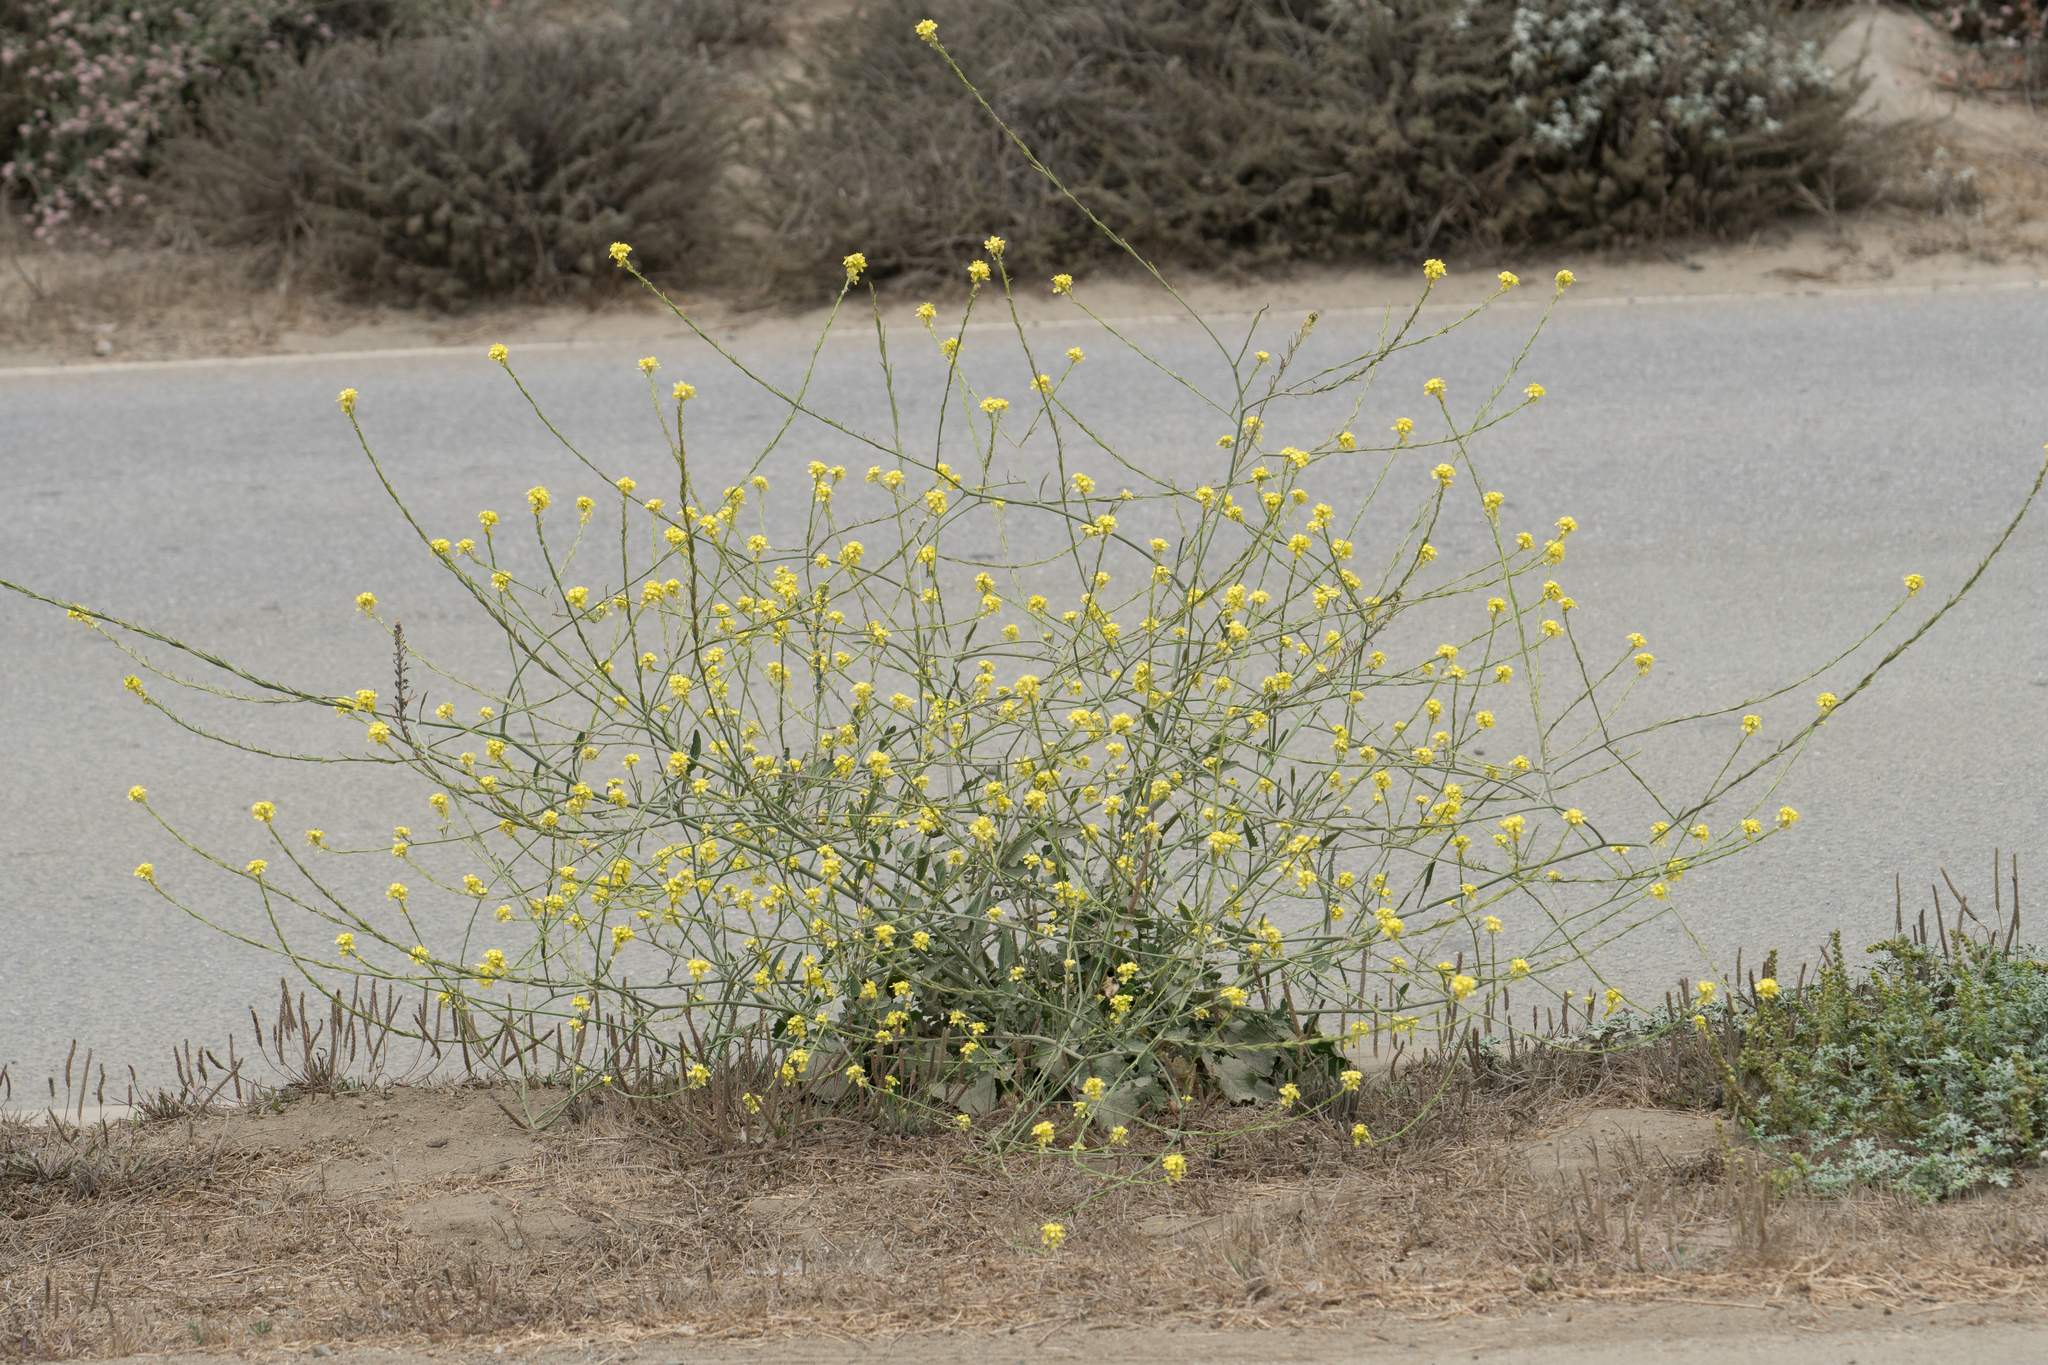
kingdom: Plantae
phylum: Tracheophyta
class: Magnoliopsida
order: Brassicales
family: Brassicaceae
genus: Hirschfeldia
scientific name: Hirschfeldia incana
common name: Hoary mustard
